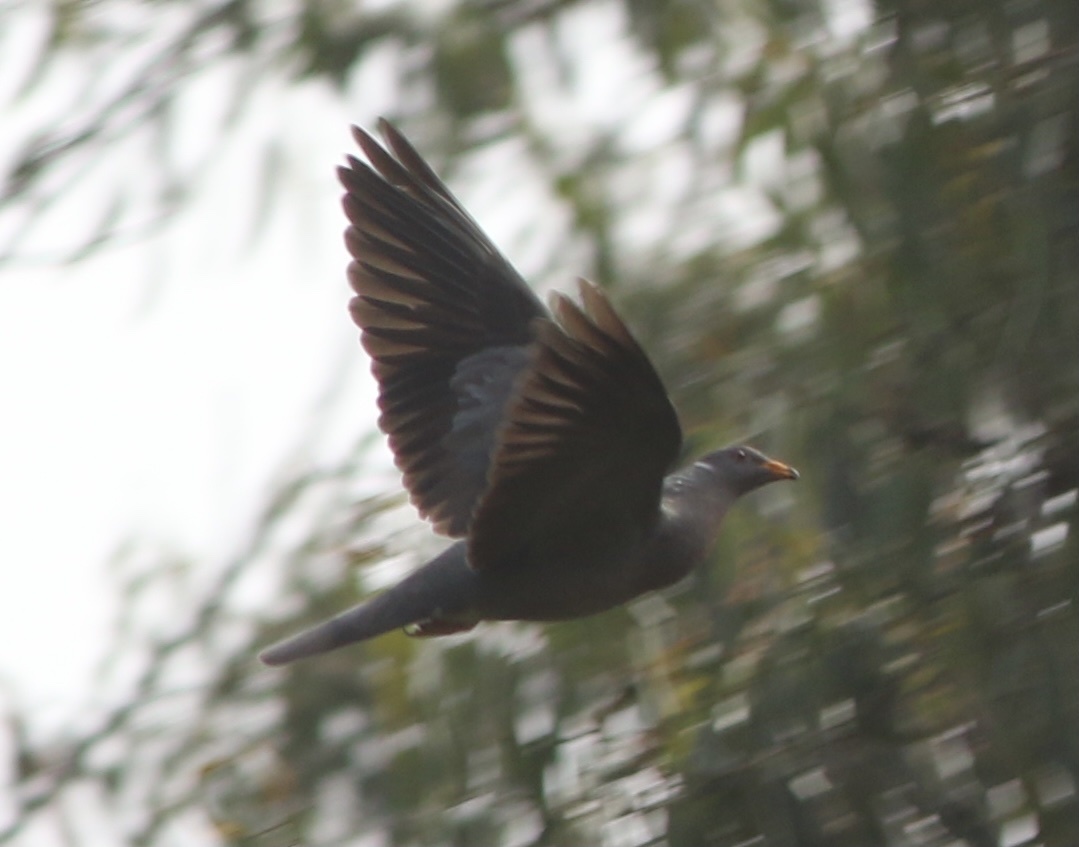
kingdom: Animalia
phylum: Chordata
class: Aves
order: Columbiformes
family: Columbidae
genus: Patagioenas
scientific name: Patagioenas fasciata
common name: Band-tailed pigeon
